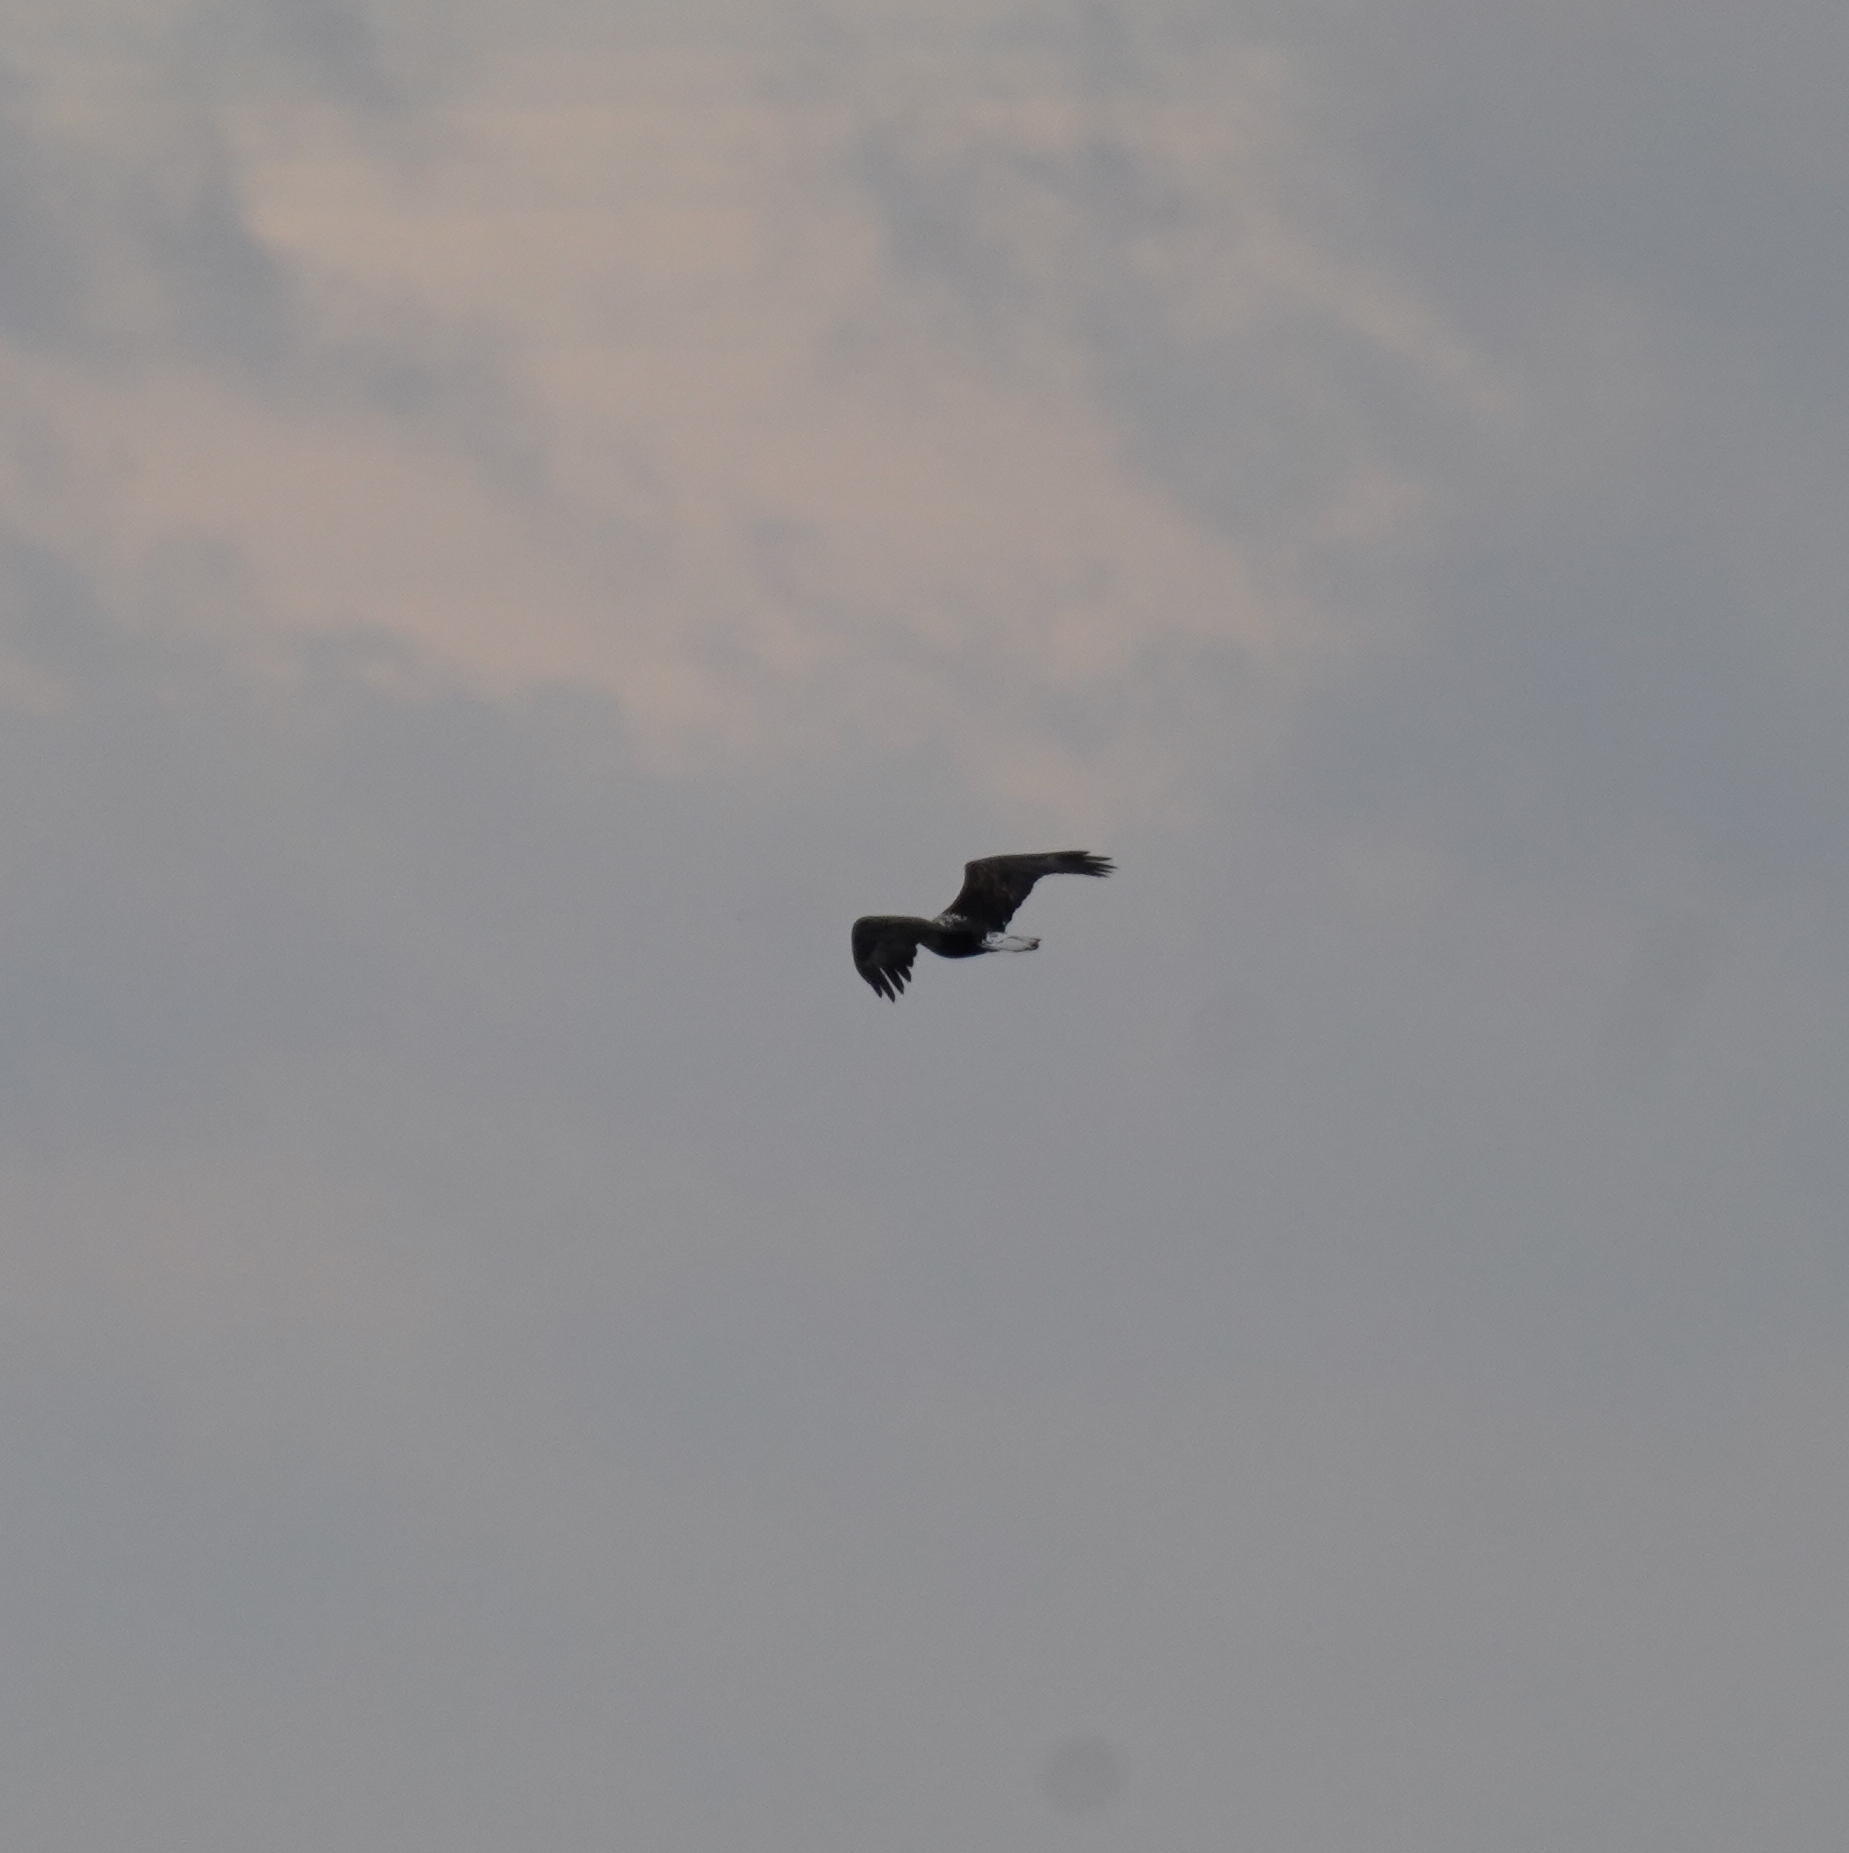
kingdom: Animalia
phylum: Chordata
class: Aves
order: Accipitriformes
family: Accipitridae
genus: Haliaeetus
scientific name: Haliaeetus leucocephalus
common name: Bald eagle
